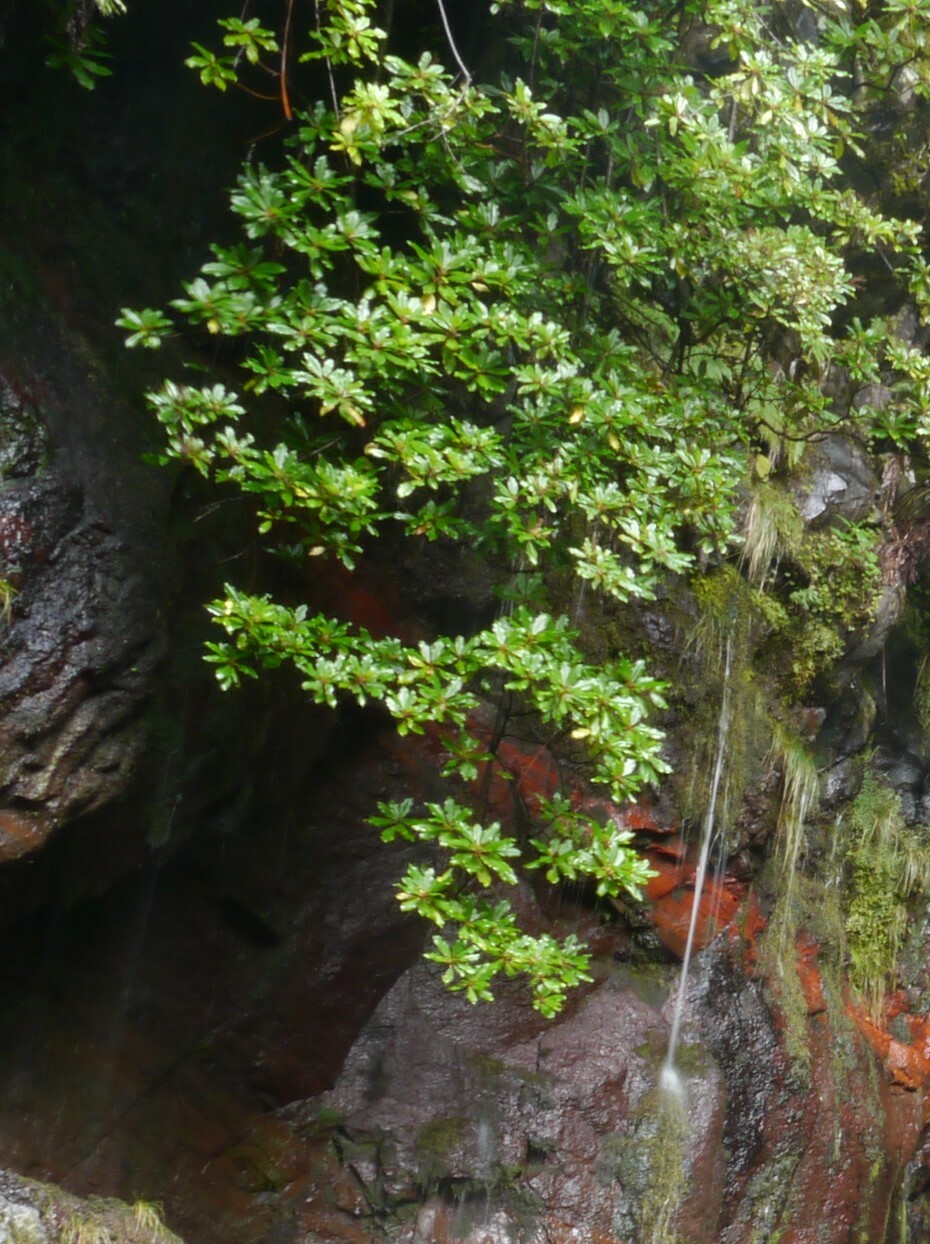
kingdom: Plantae
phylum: Tracheophyta
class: Magnoliopsida
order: Ericales
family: Clethraceae
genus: Clethra
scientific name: Clethra arborea
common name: Lily-of-the-valley-tree
